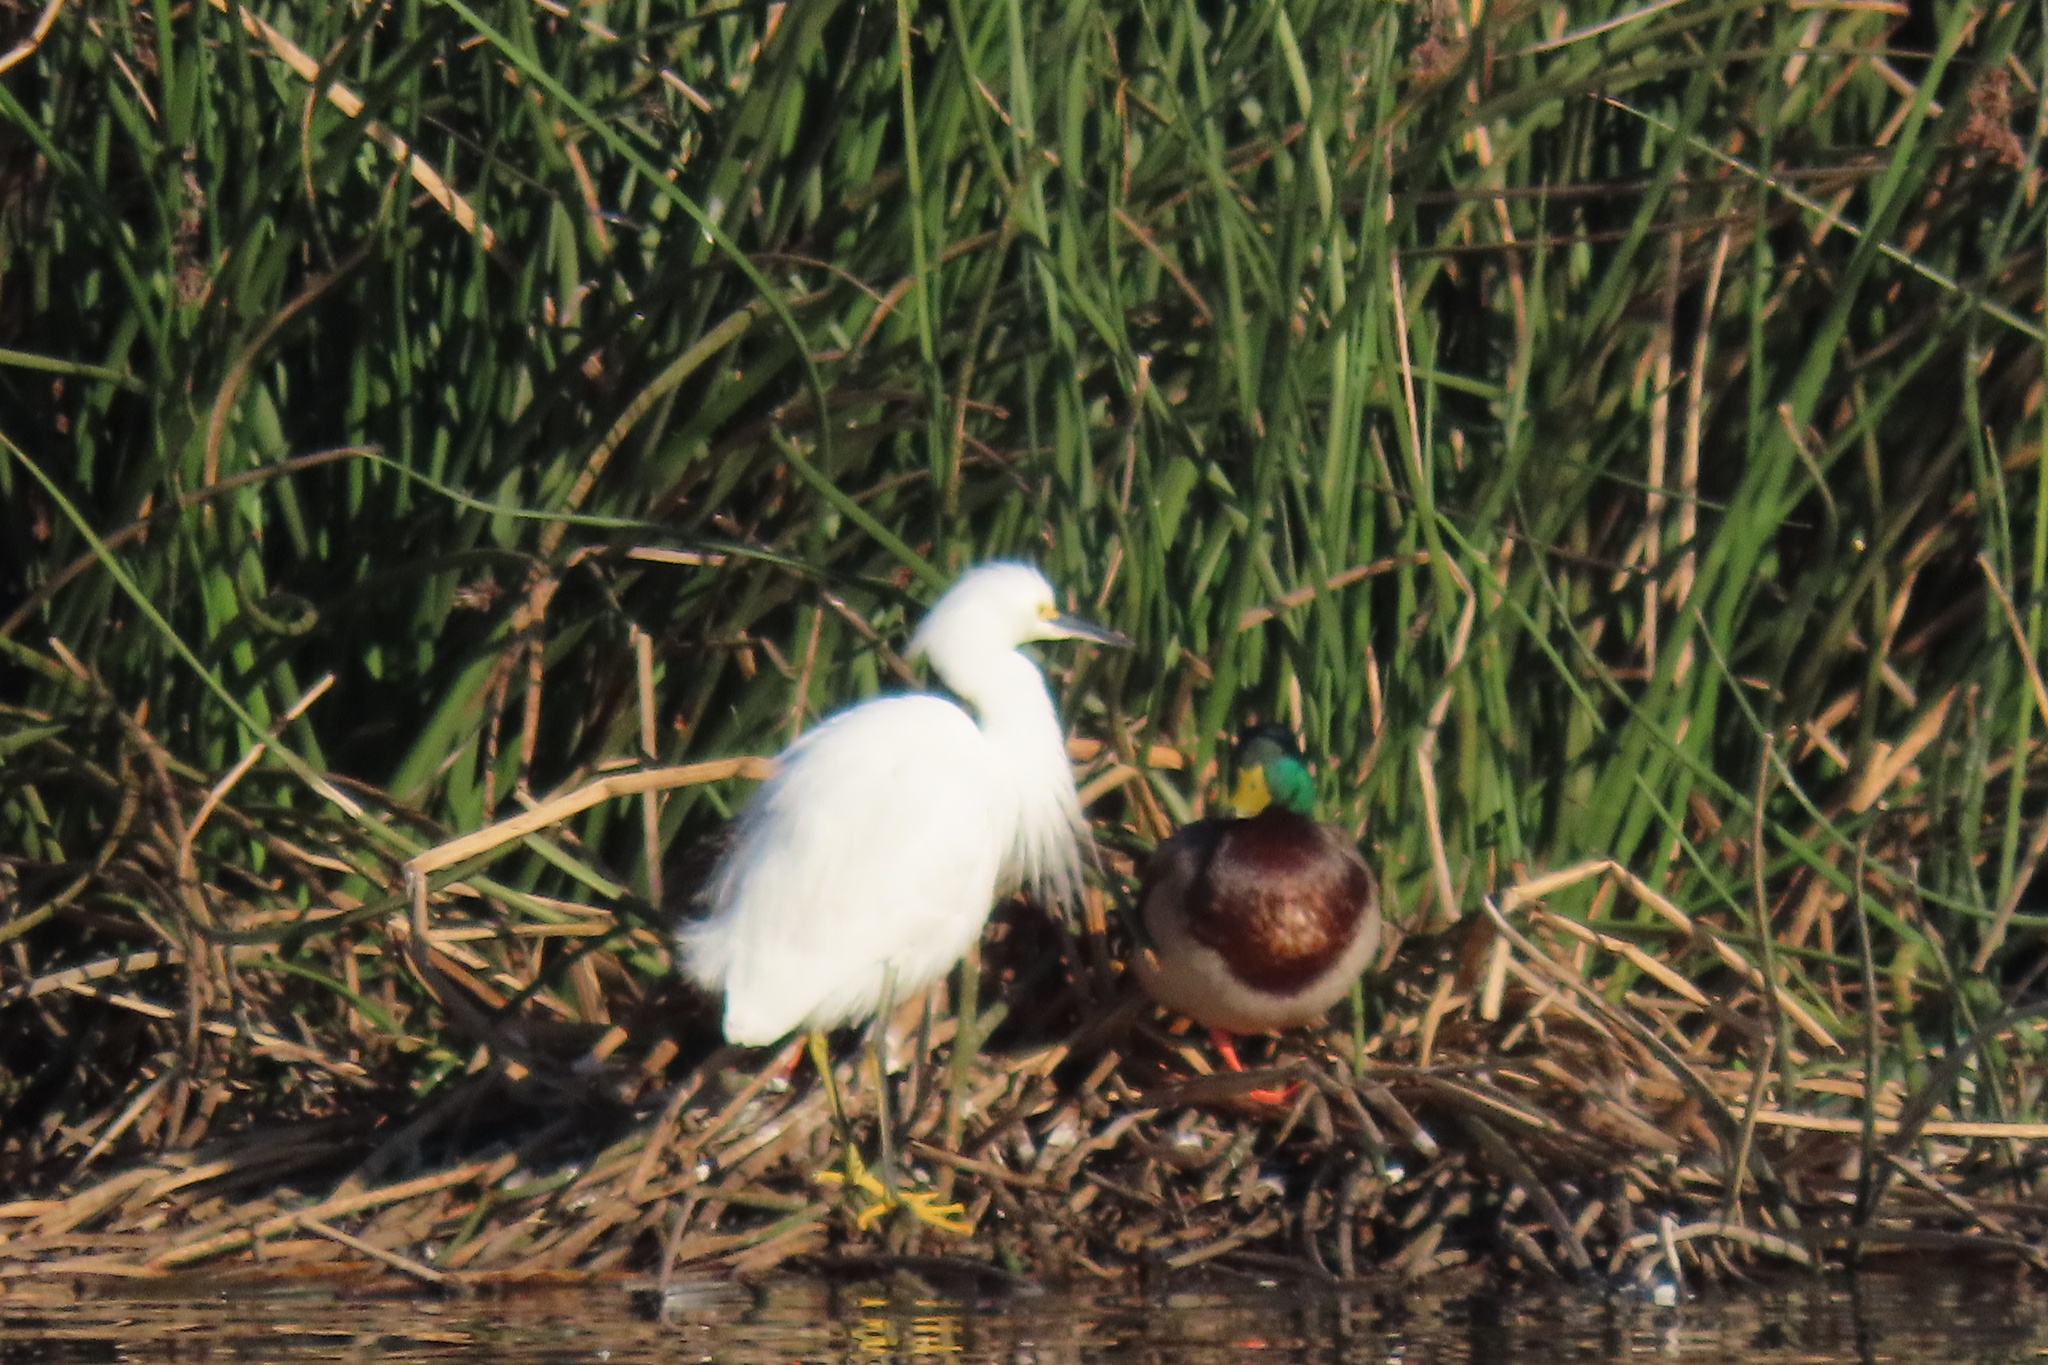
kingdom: Animalia
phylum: Chordata
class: Aves
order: Pelecaniformes
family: Ardeidae
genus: Egretta
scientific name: Egretta thula
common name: Snowy egret
